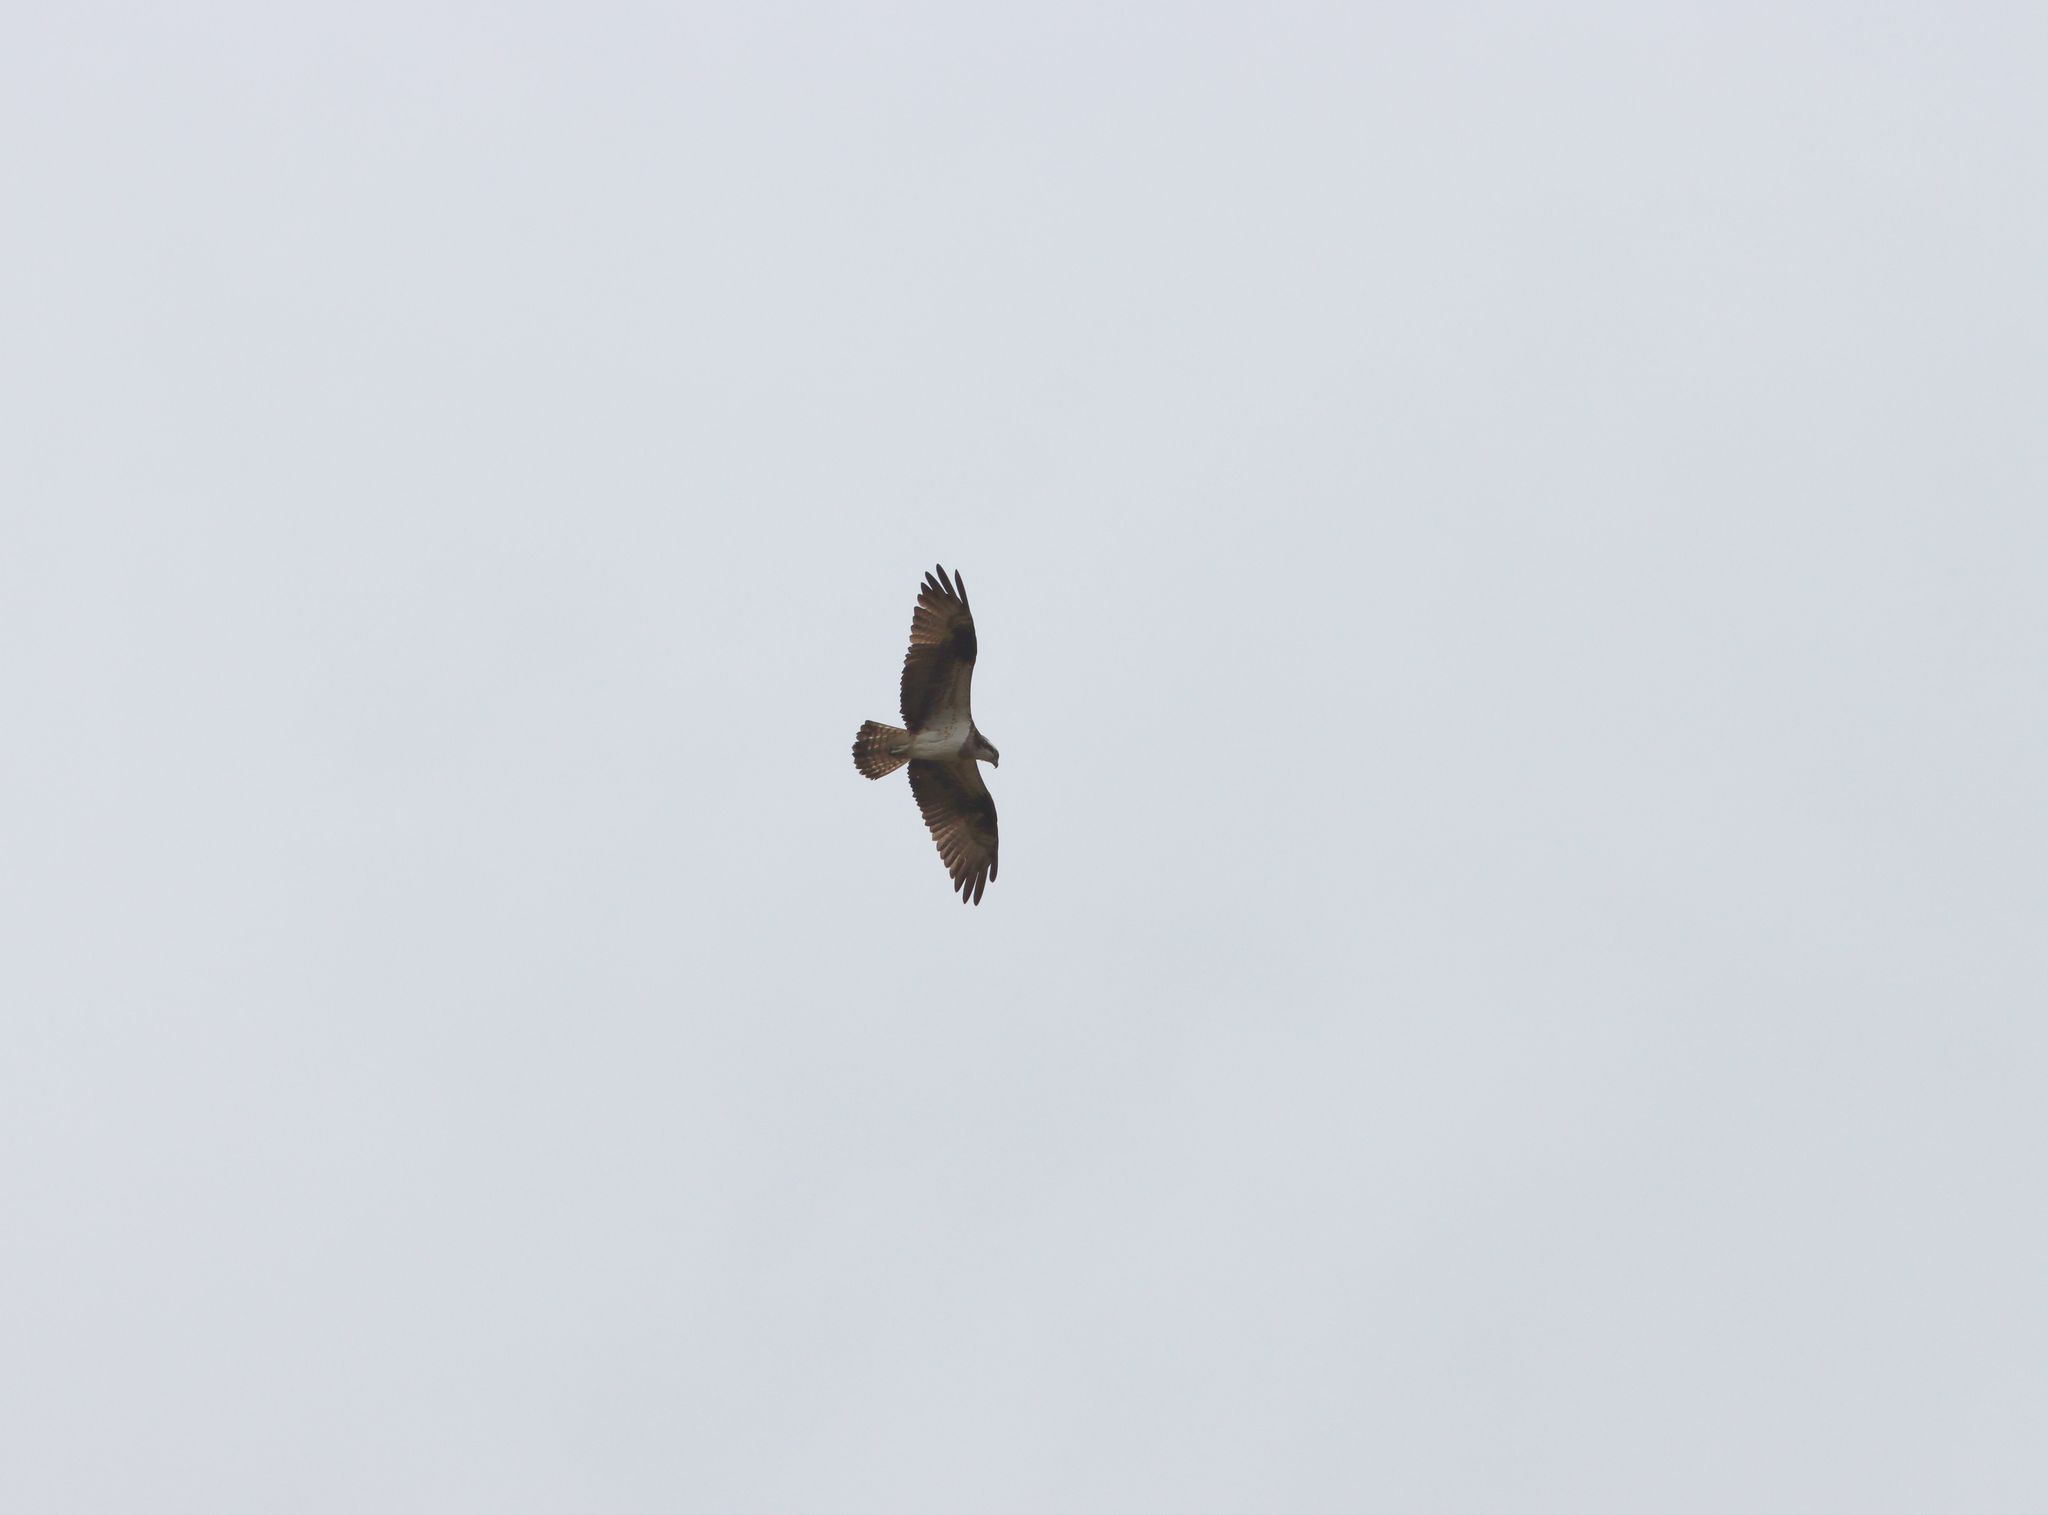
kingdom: Animalia
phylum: Chordata
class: Aves
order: Accipitriformes
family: Pandionidae
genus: Pandion
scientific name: Pandion haliaetus
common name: Osprey
